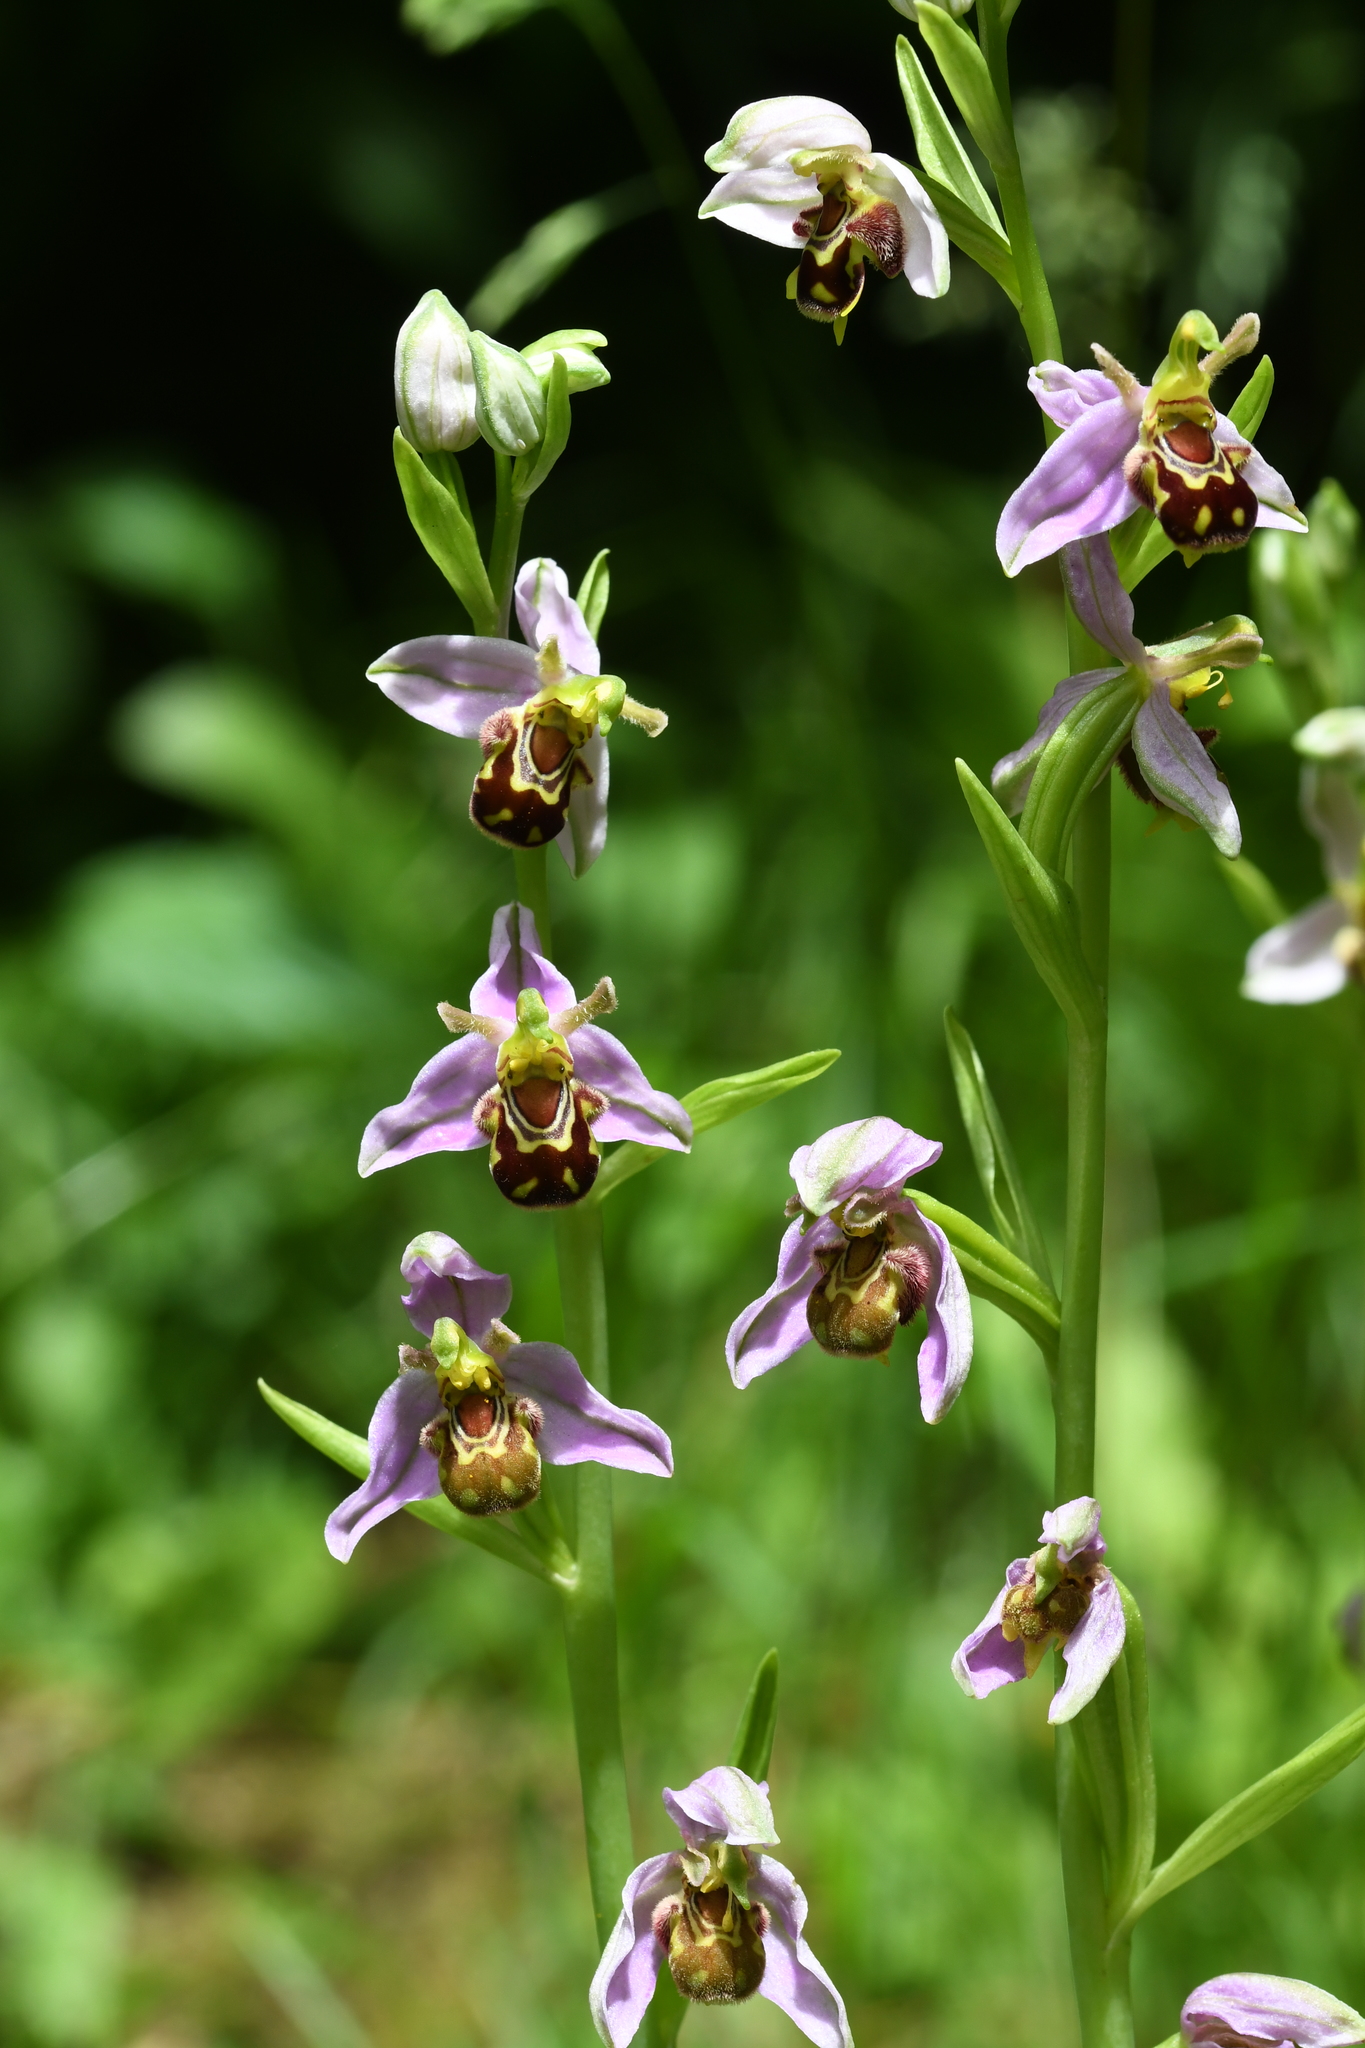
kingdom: Plantae
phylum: Tracheophyta
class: Liliopsida
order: Asparagales
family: Orchidaceae
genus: Ophrys
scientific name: Ophrys apifera
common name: Bee orchid
